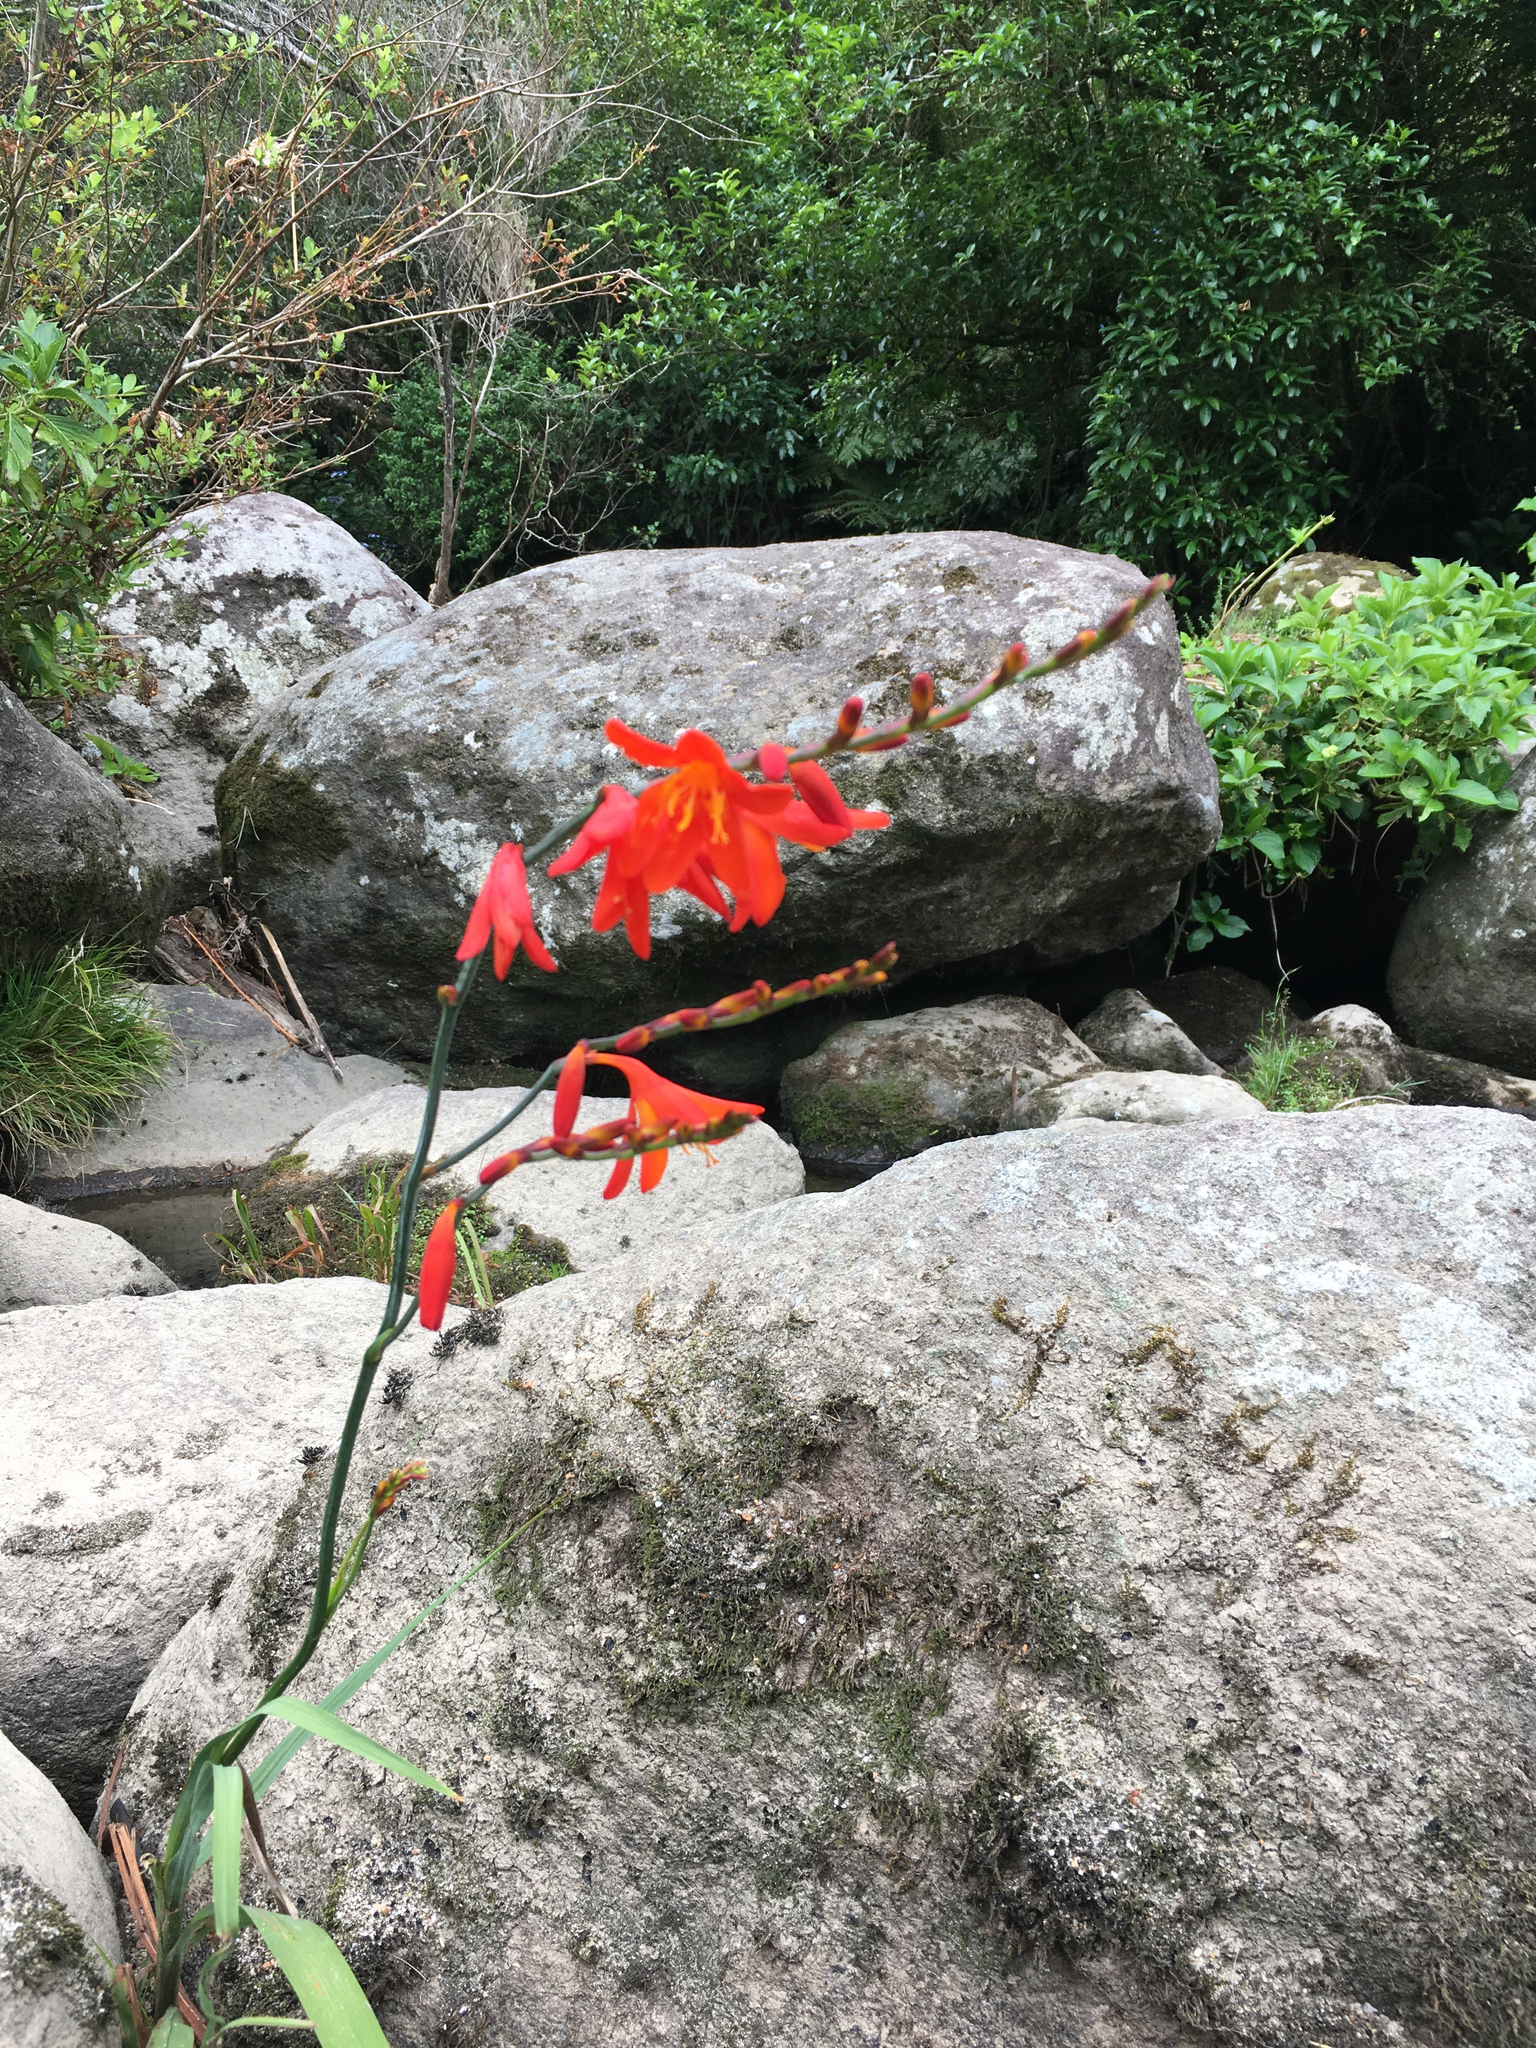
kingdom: Plantae
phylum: Tracheophyta
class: Liliopsida
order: Asparagales
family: Iridaceae
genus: Crocosmia
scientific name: Crocosmia crocosmiiflora
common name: Montbretia
